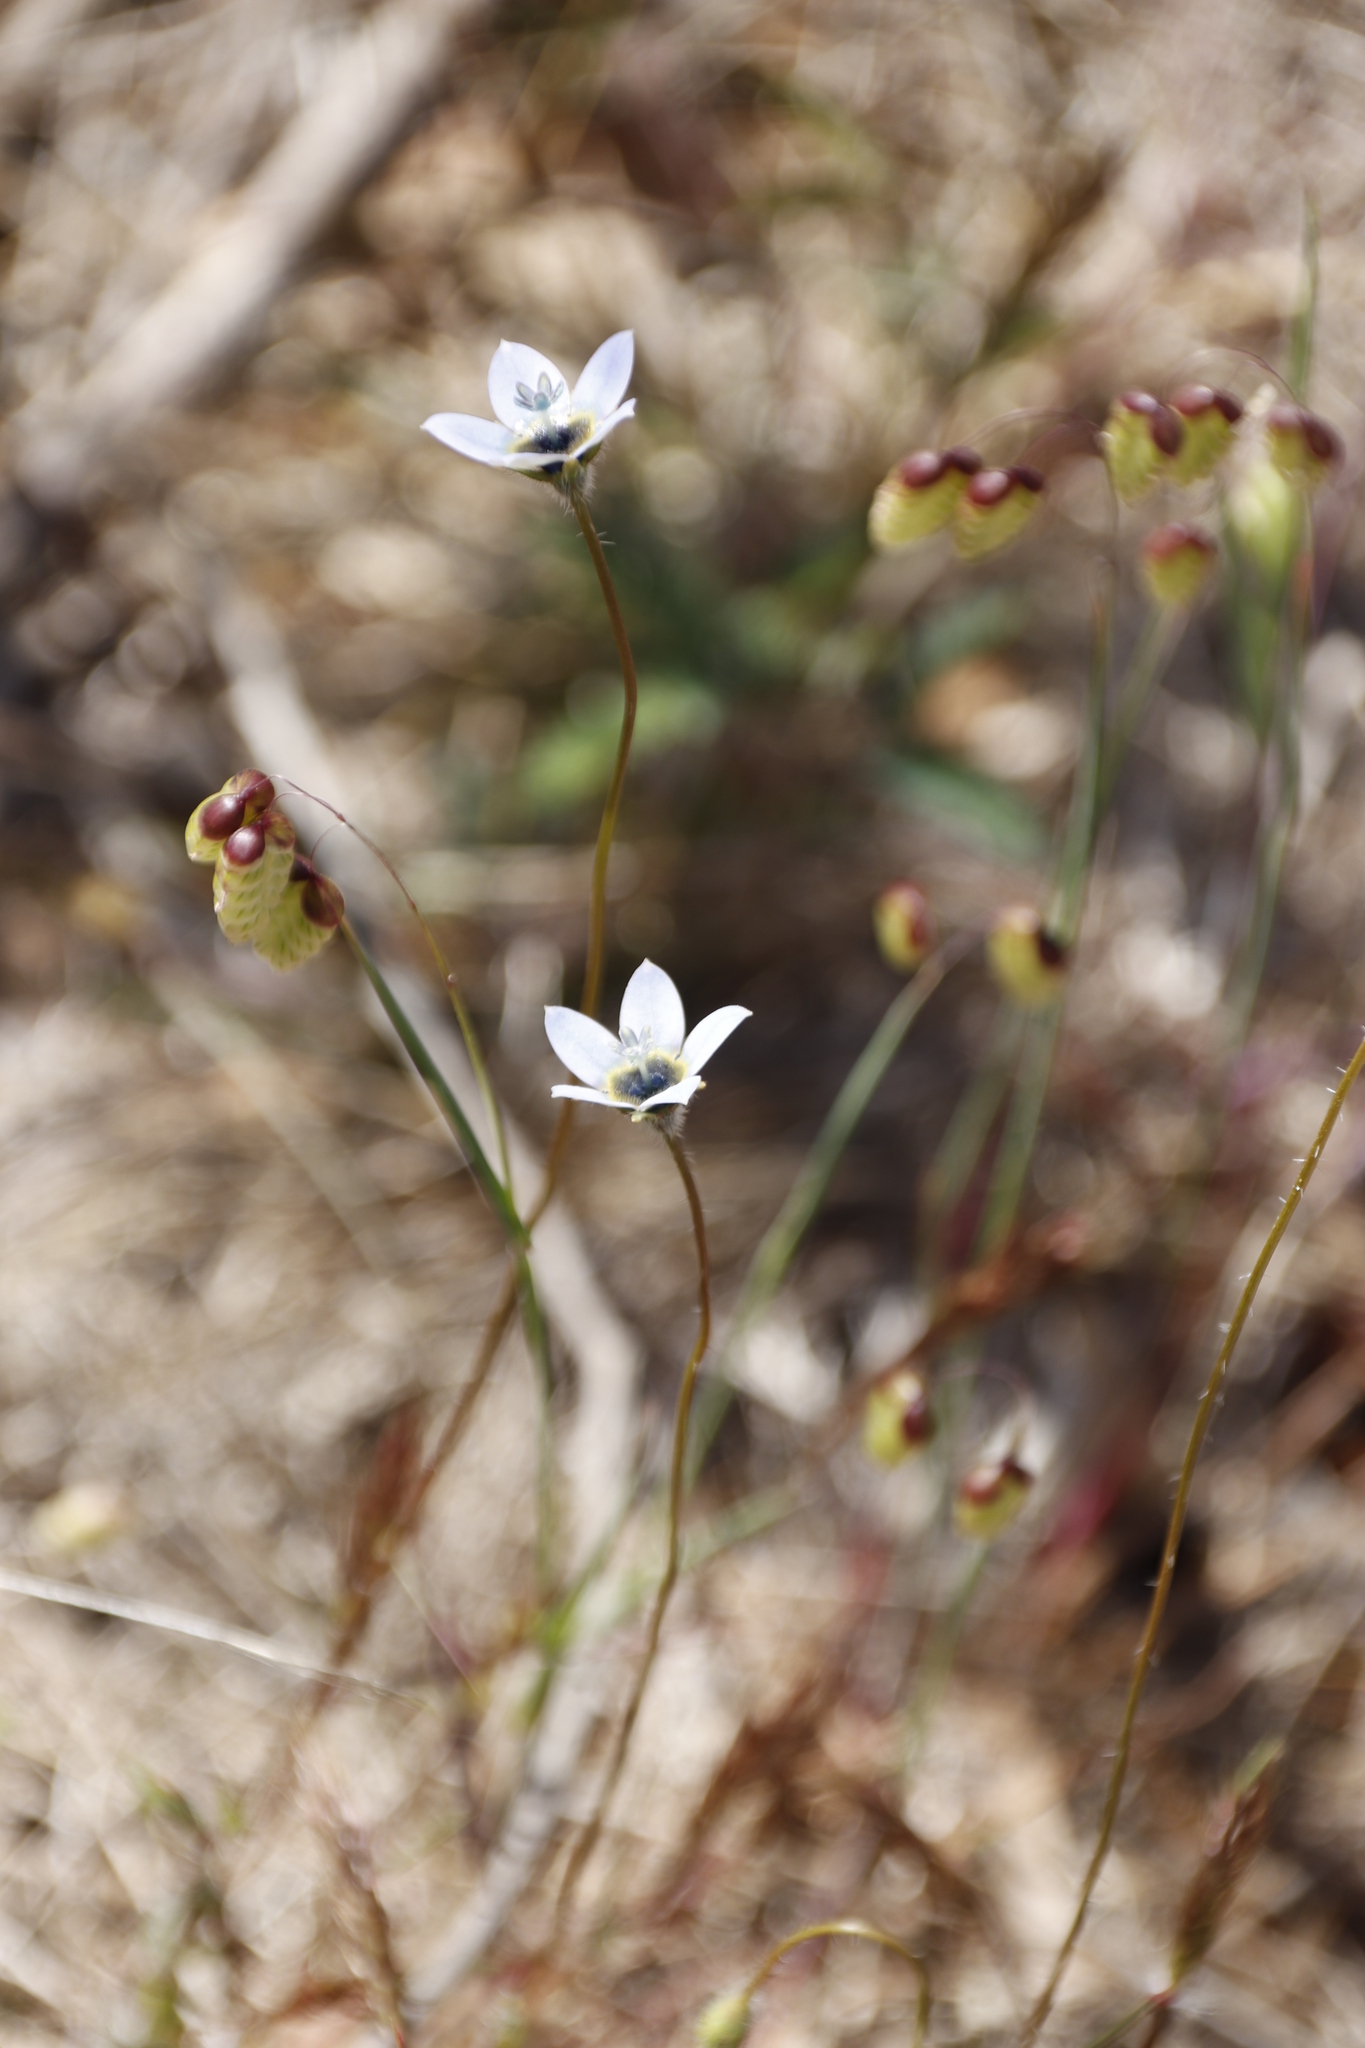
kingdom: Plantae
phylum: Tracheophyta
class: Liliopsida
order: Poales
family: Poaceae
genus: Briza
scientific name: Briza maxima
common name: Big quakinggrass
